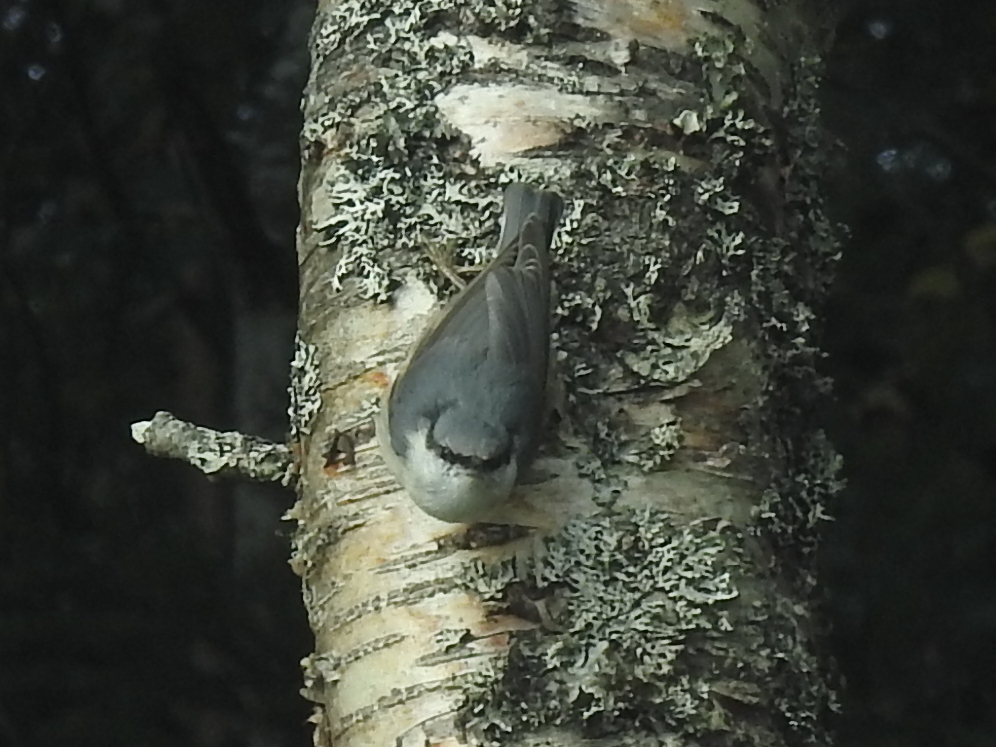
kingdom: Animalia
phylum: Chordata
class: Aves
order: Passeriformes
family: Sittidae
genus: Sitta
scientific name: Sitta europaea
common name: Eurasian nuthatch
